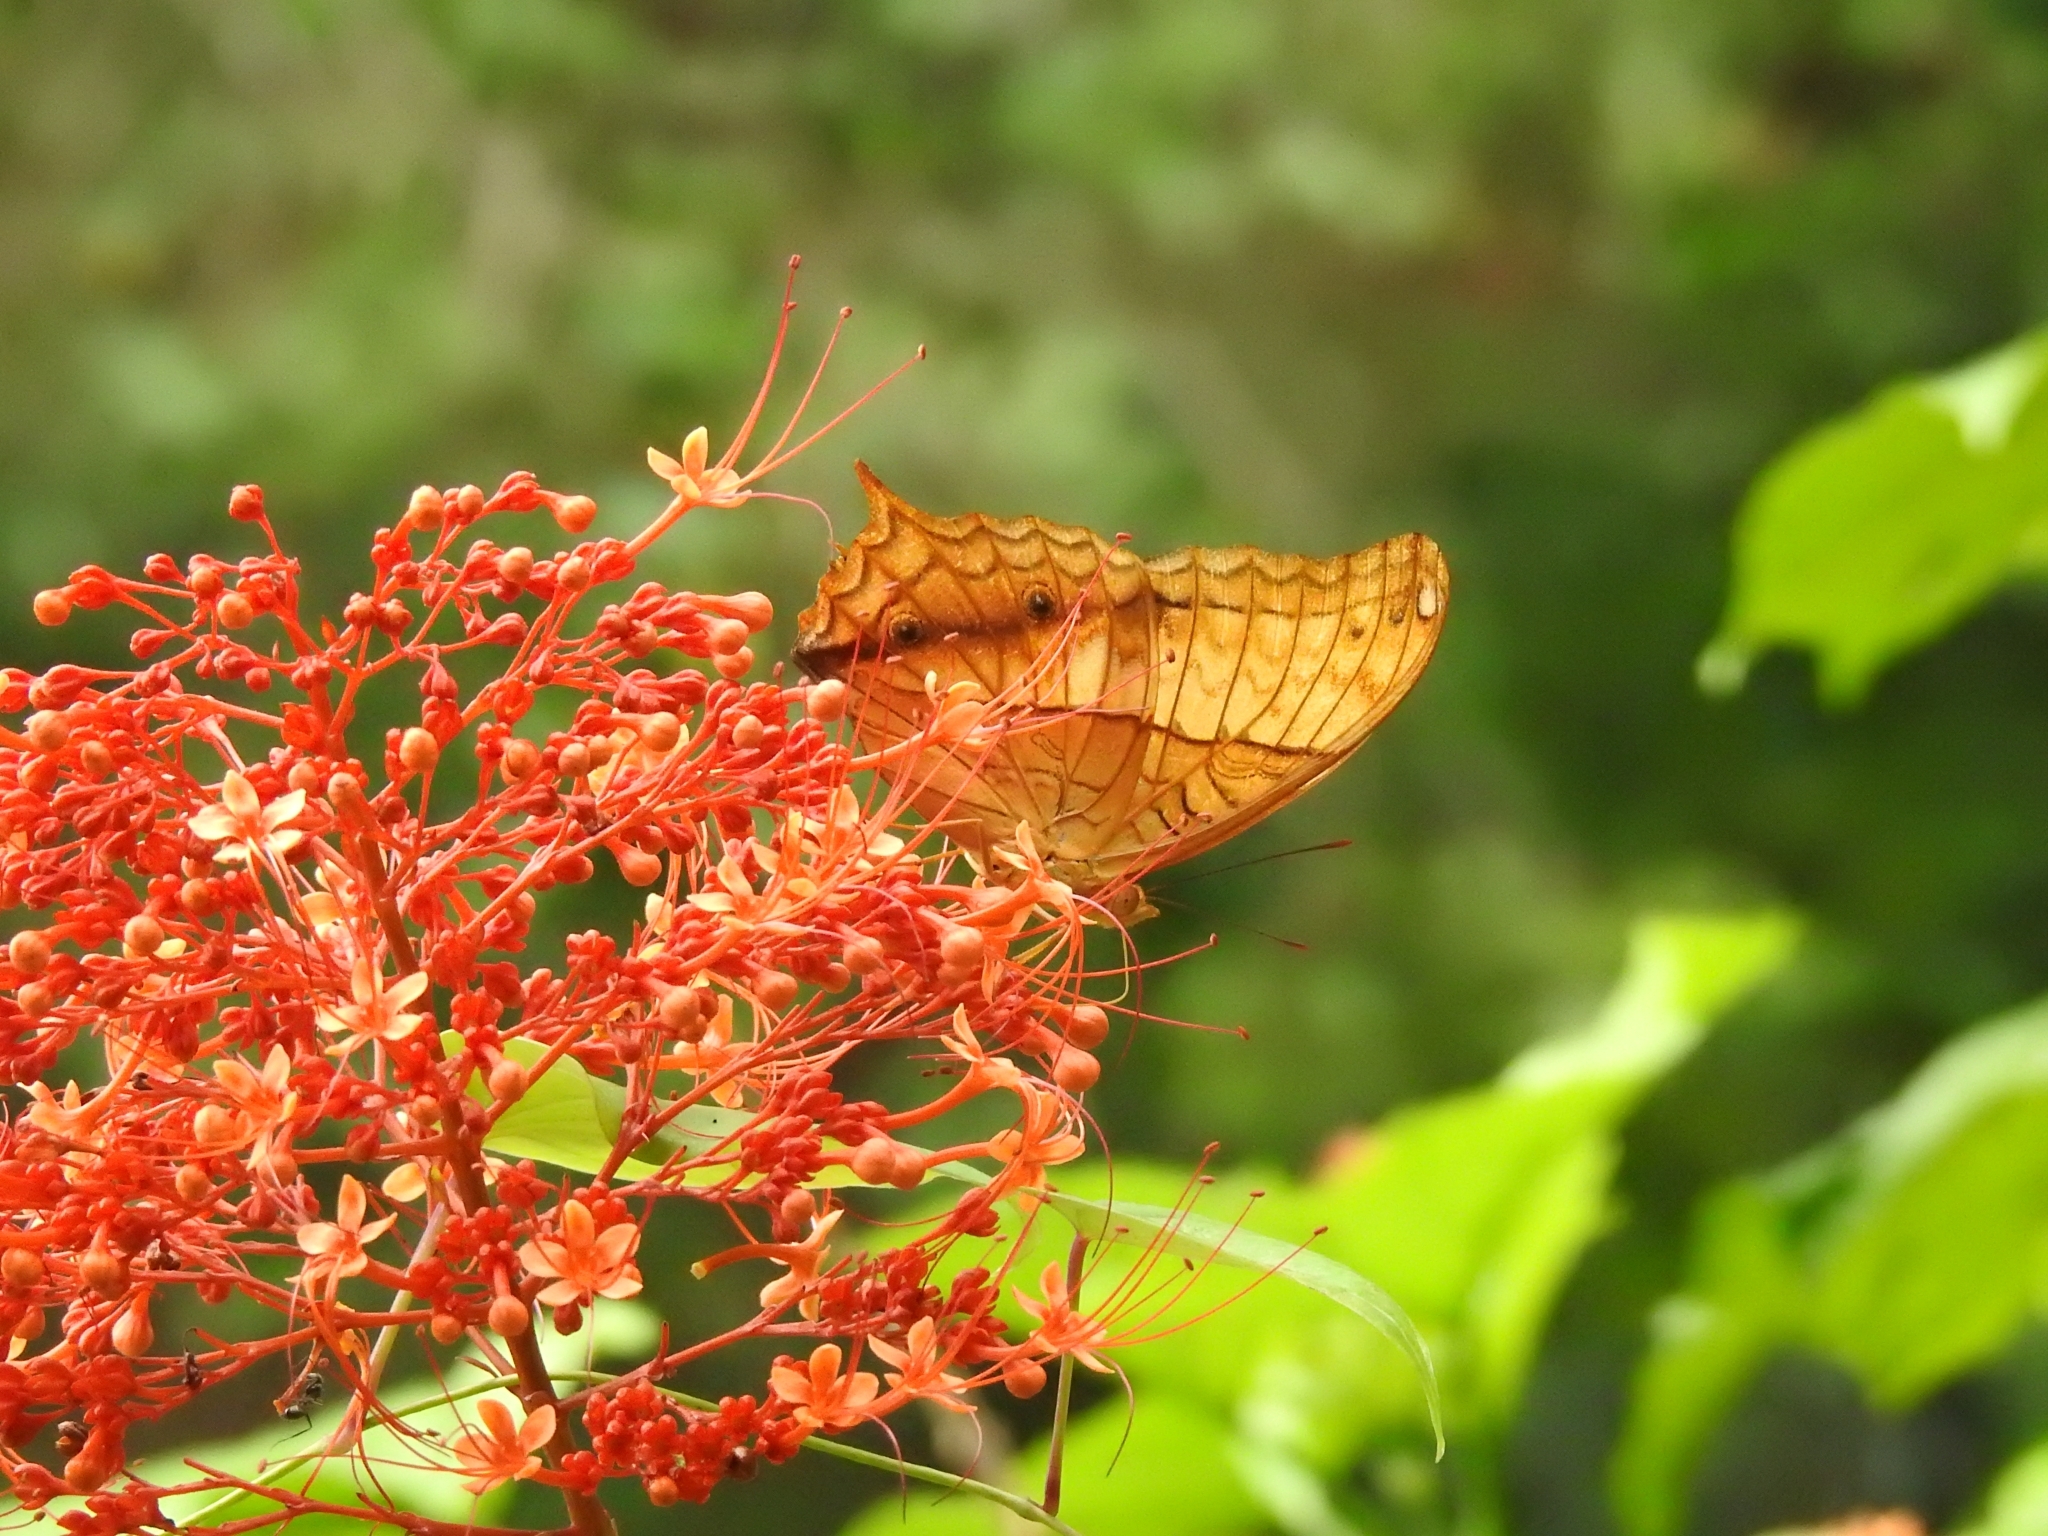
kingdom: Animalia
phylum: Arthropoda
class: Insecta
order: Lepidoptera
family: Nymphalidae
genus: Vindula
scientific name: Vindula erota
